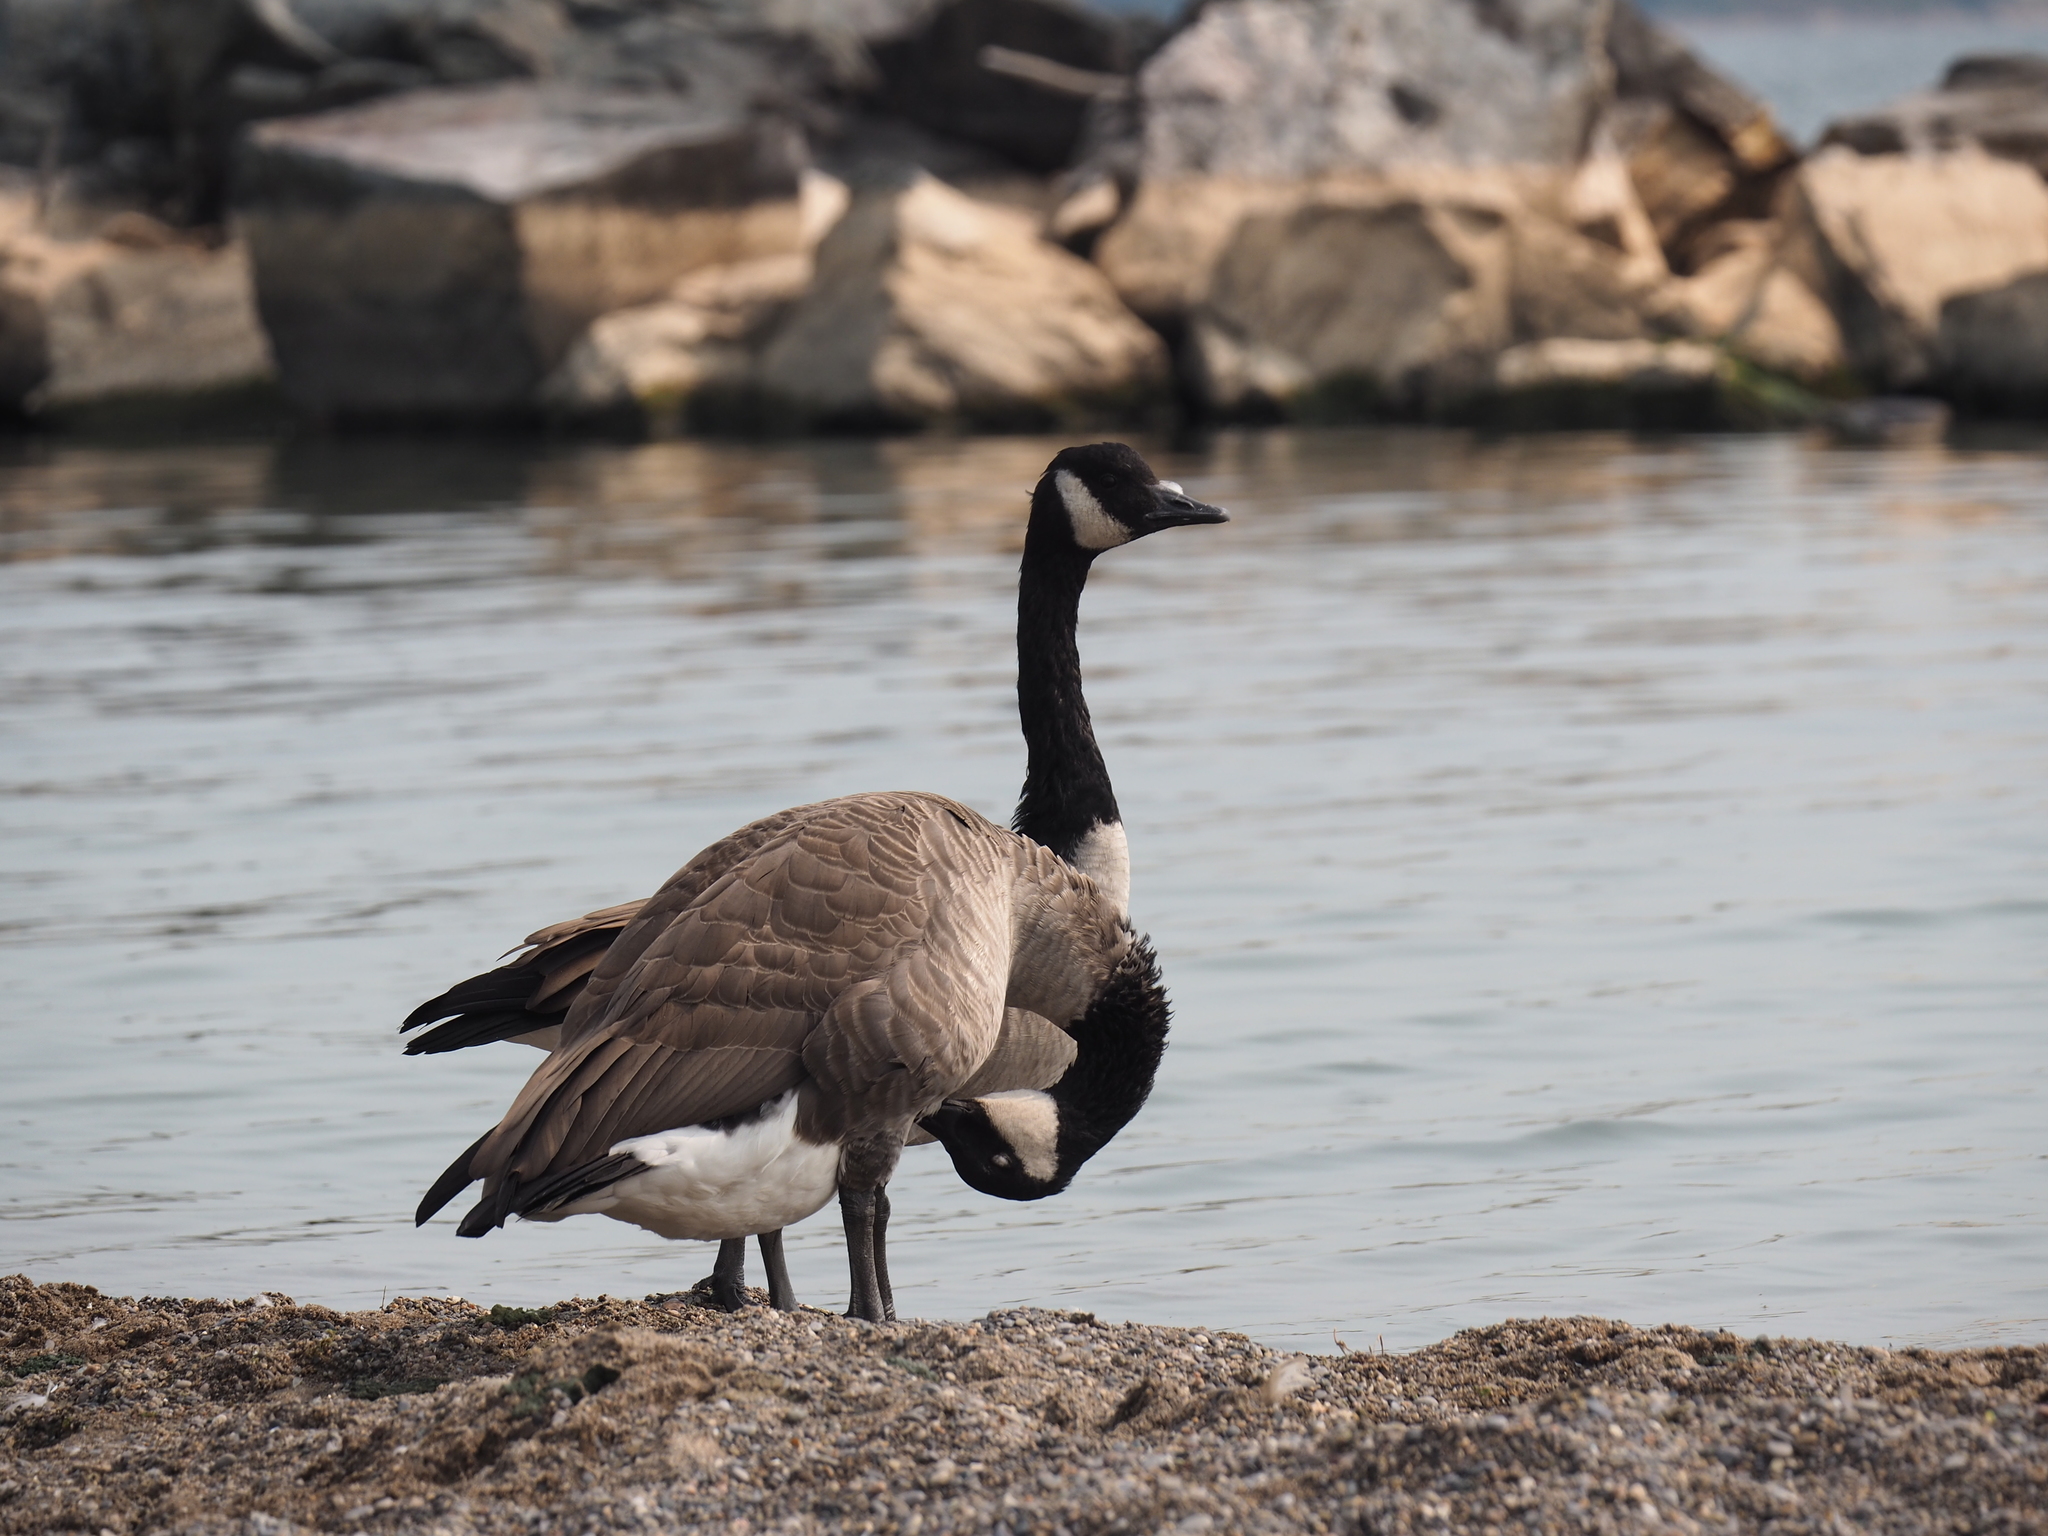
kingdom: Animalia
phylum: Chordata
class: Aves
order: Anseriformes
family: Anatidae
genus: Branta
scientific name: Branta canadensis
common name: Canada goose
